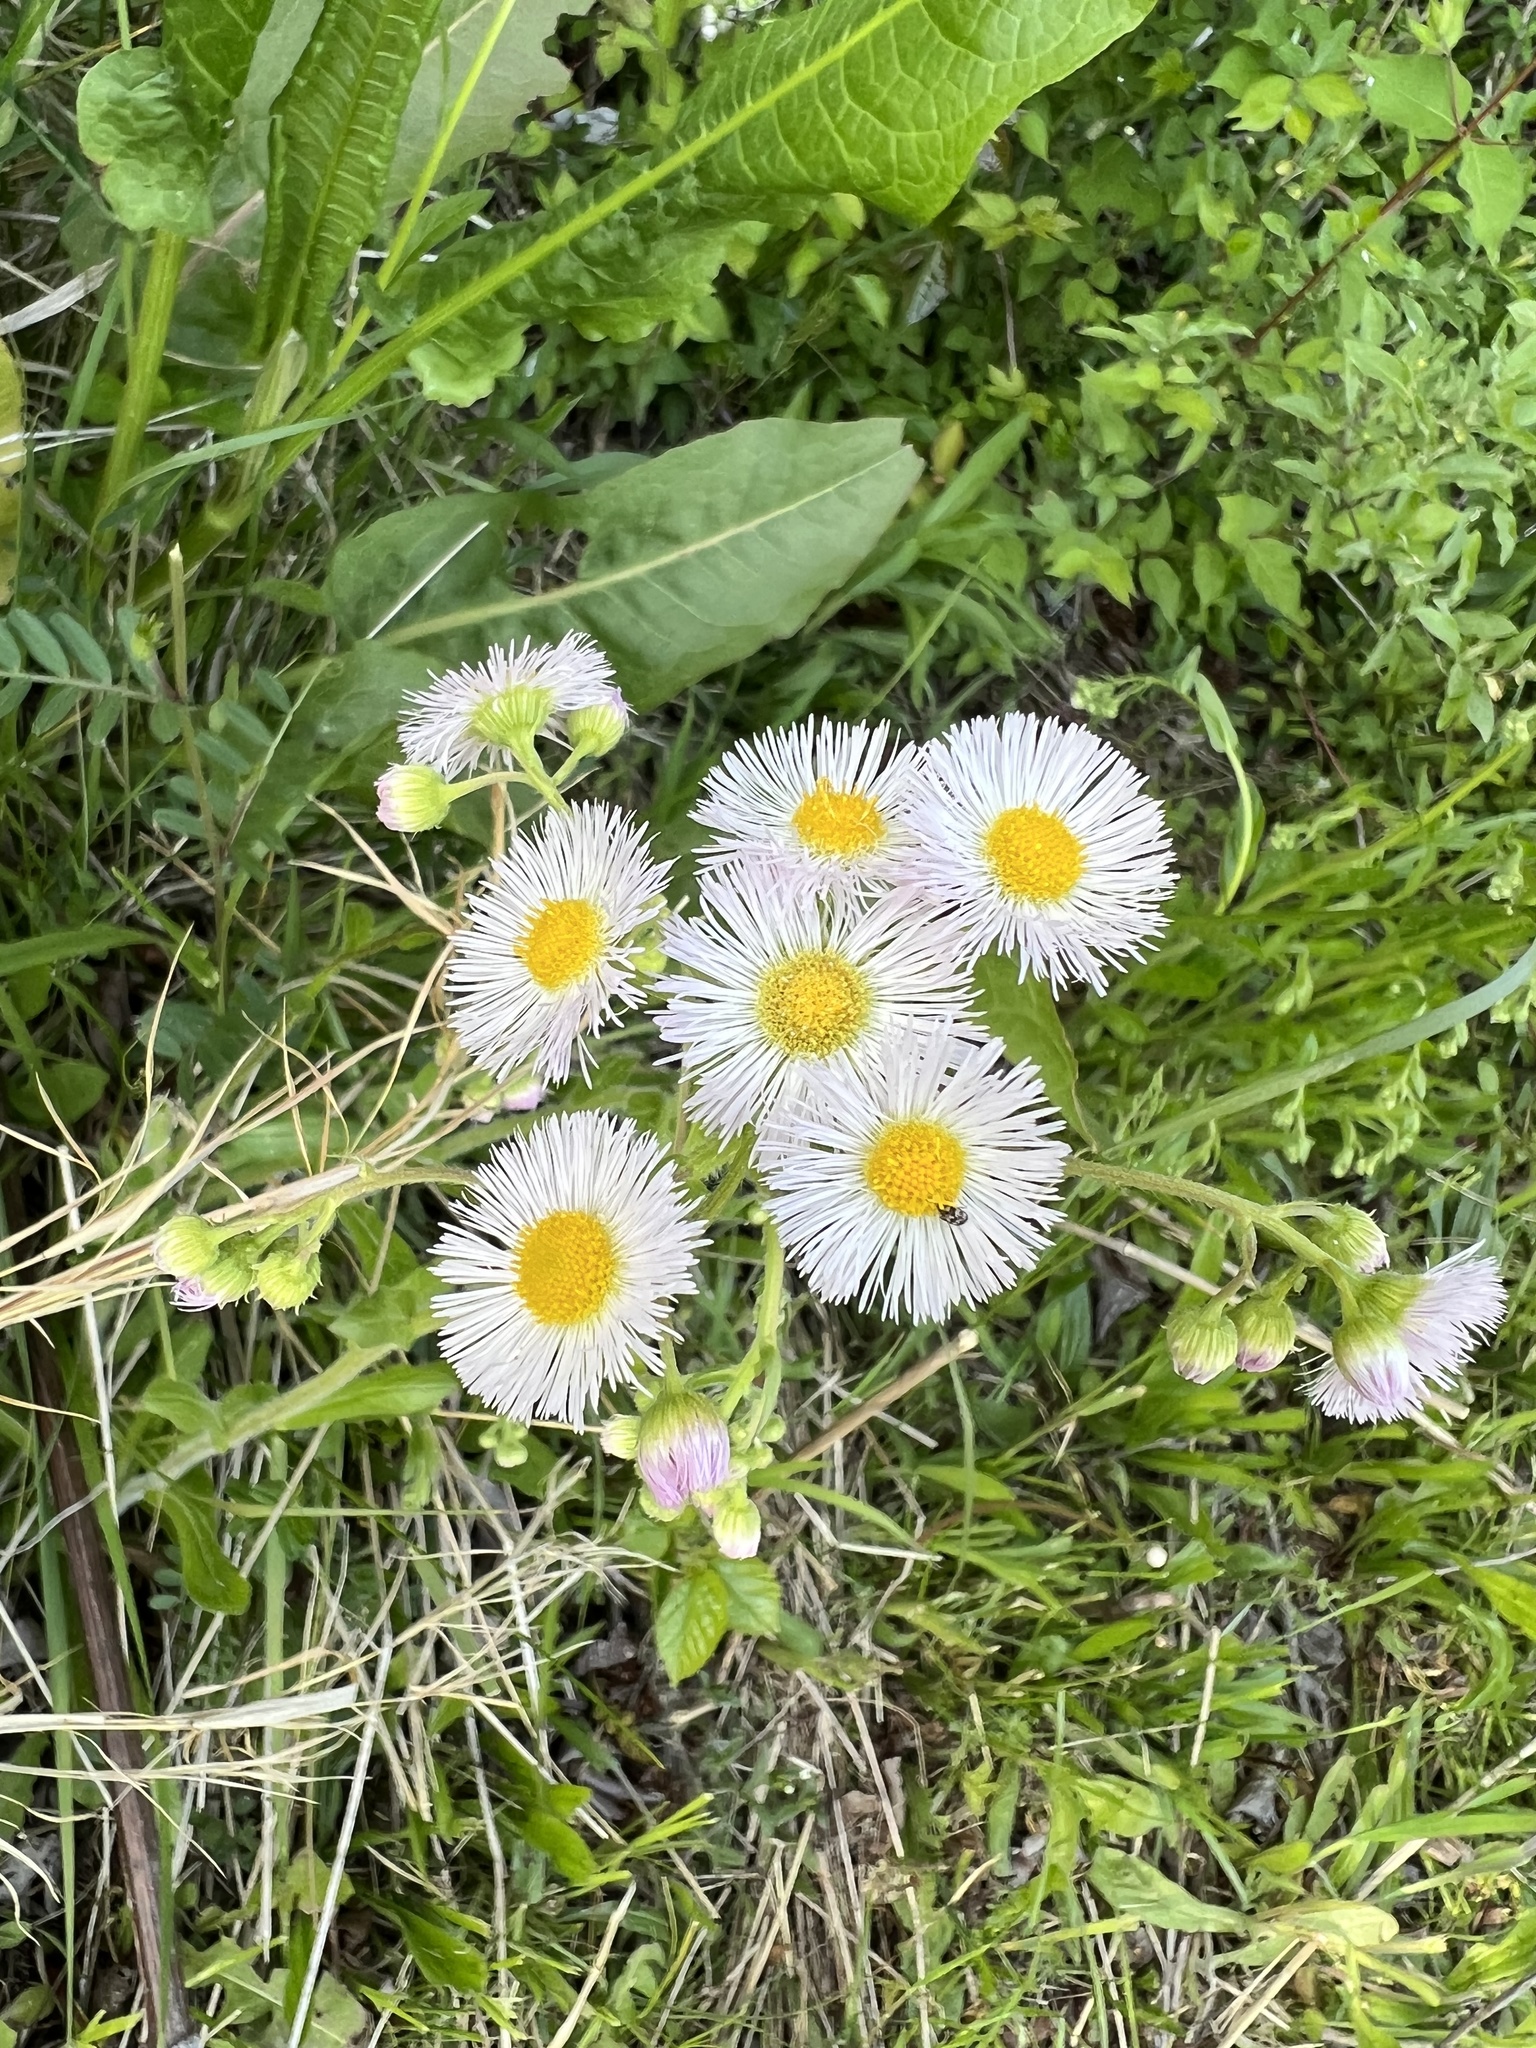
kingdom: Plantae
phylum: Tracheophyta
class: Magnoliopsida
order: Asterales
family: Asteraceae
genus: Erigeron
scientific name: Erigeron philadelphicus
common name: Robin's-plantain
